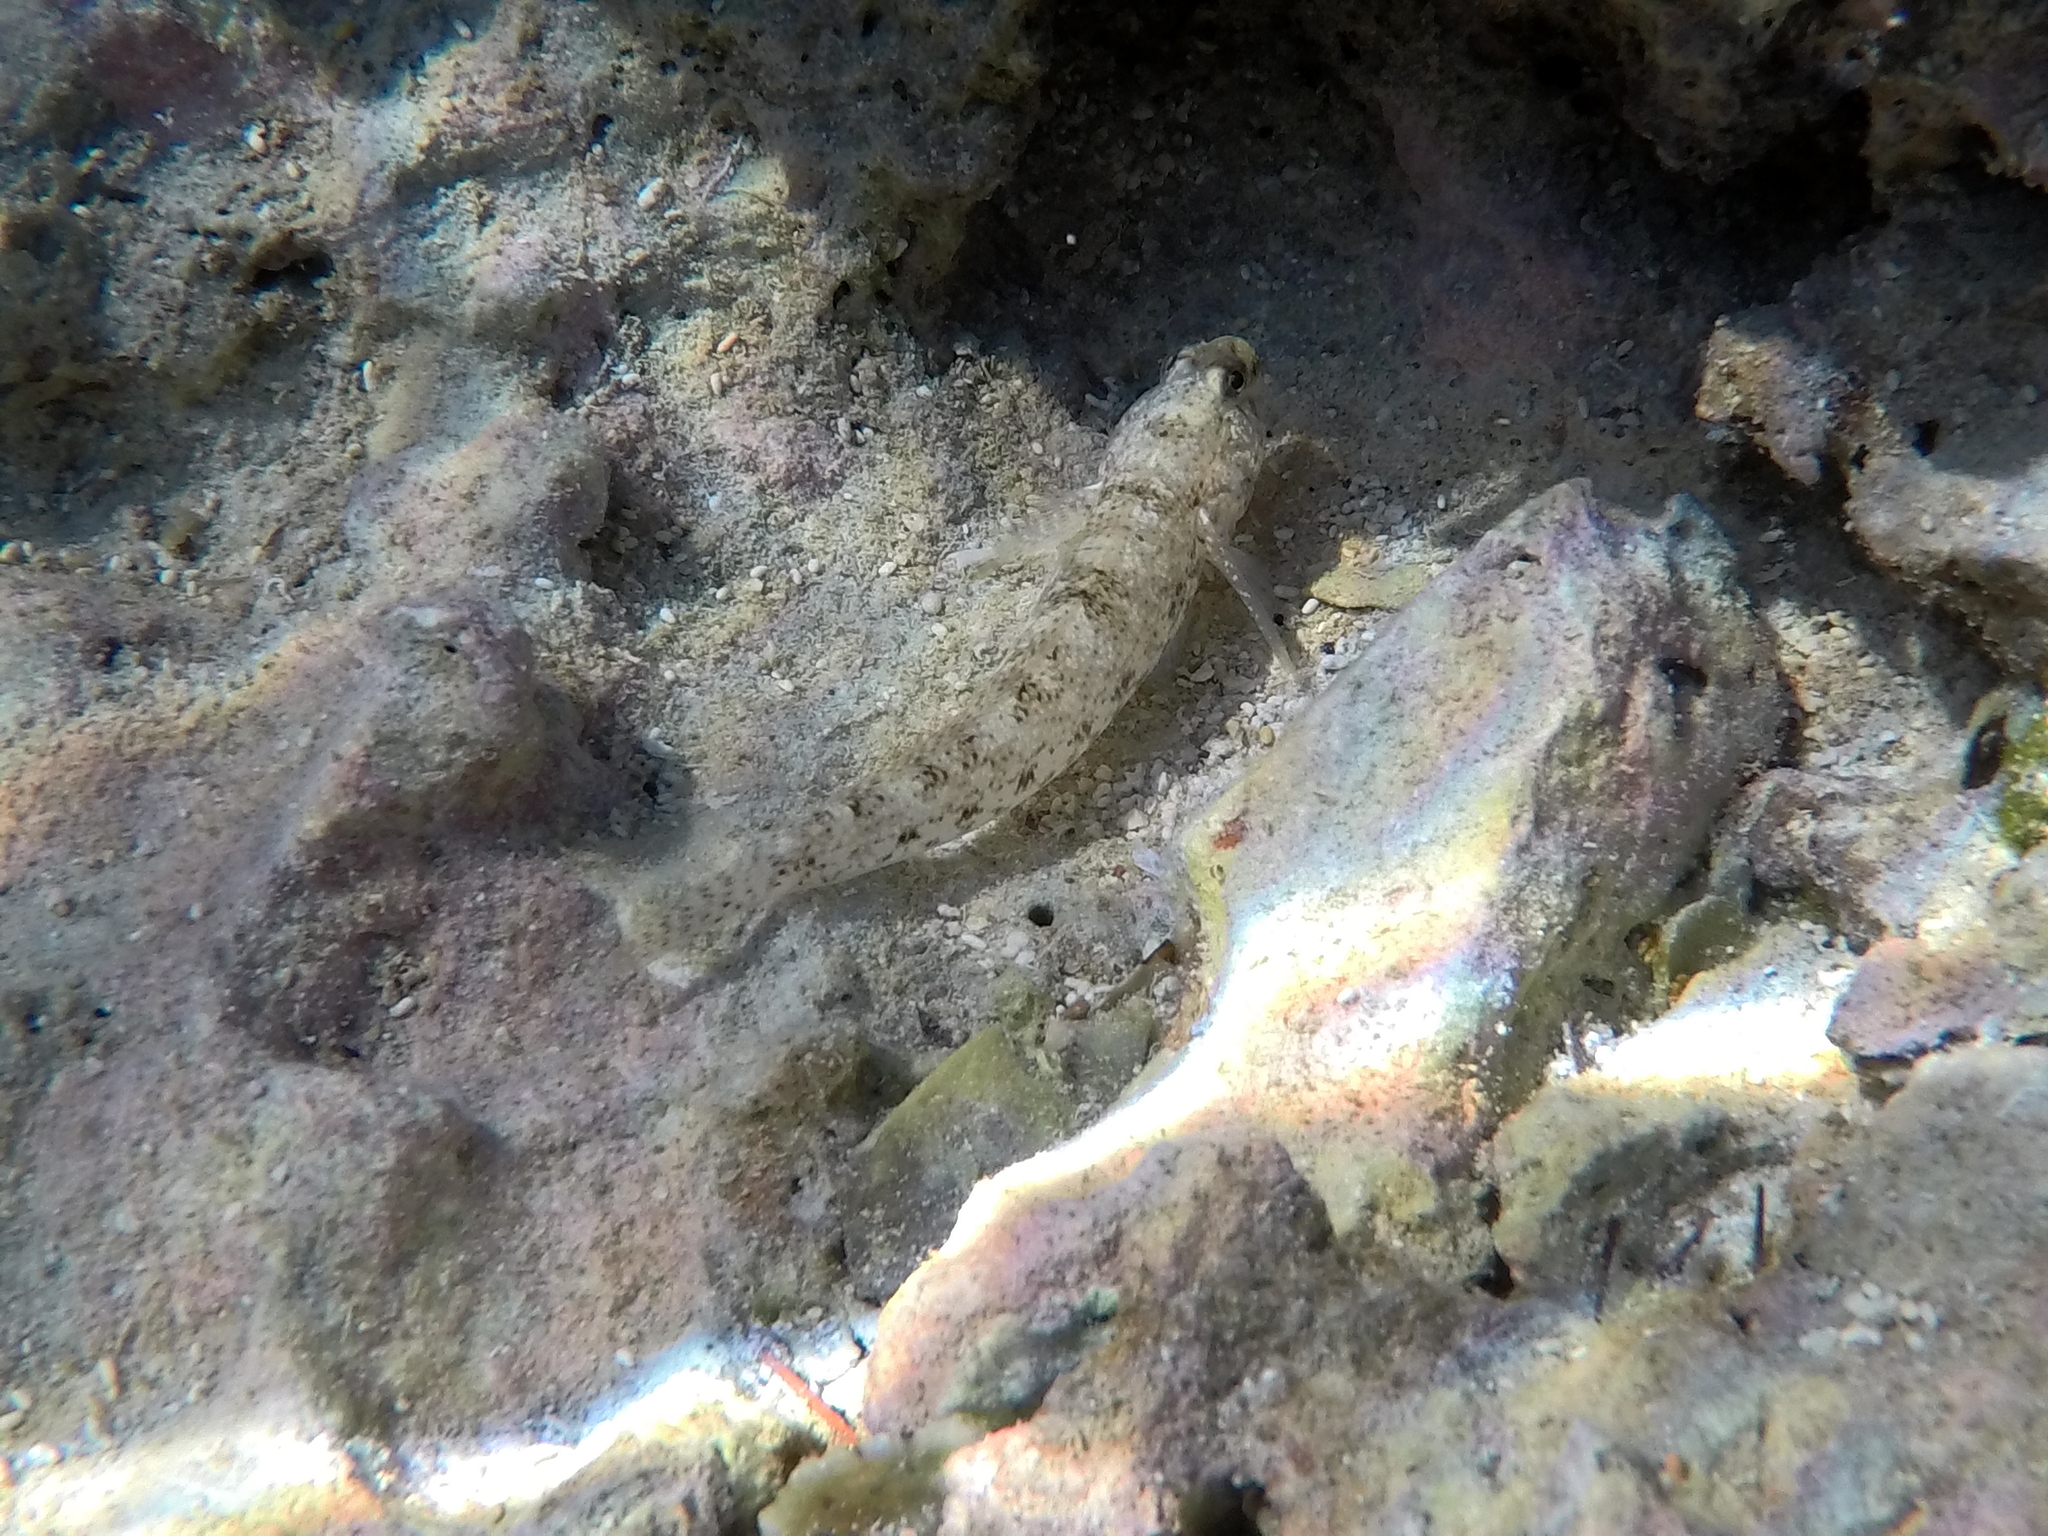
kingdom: Animalia
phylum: Chordata
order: Perciformes
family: Gobiidae
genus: Gobius
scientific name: Gobius incognitus
